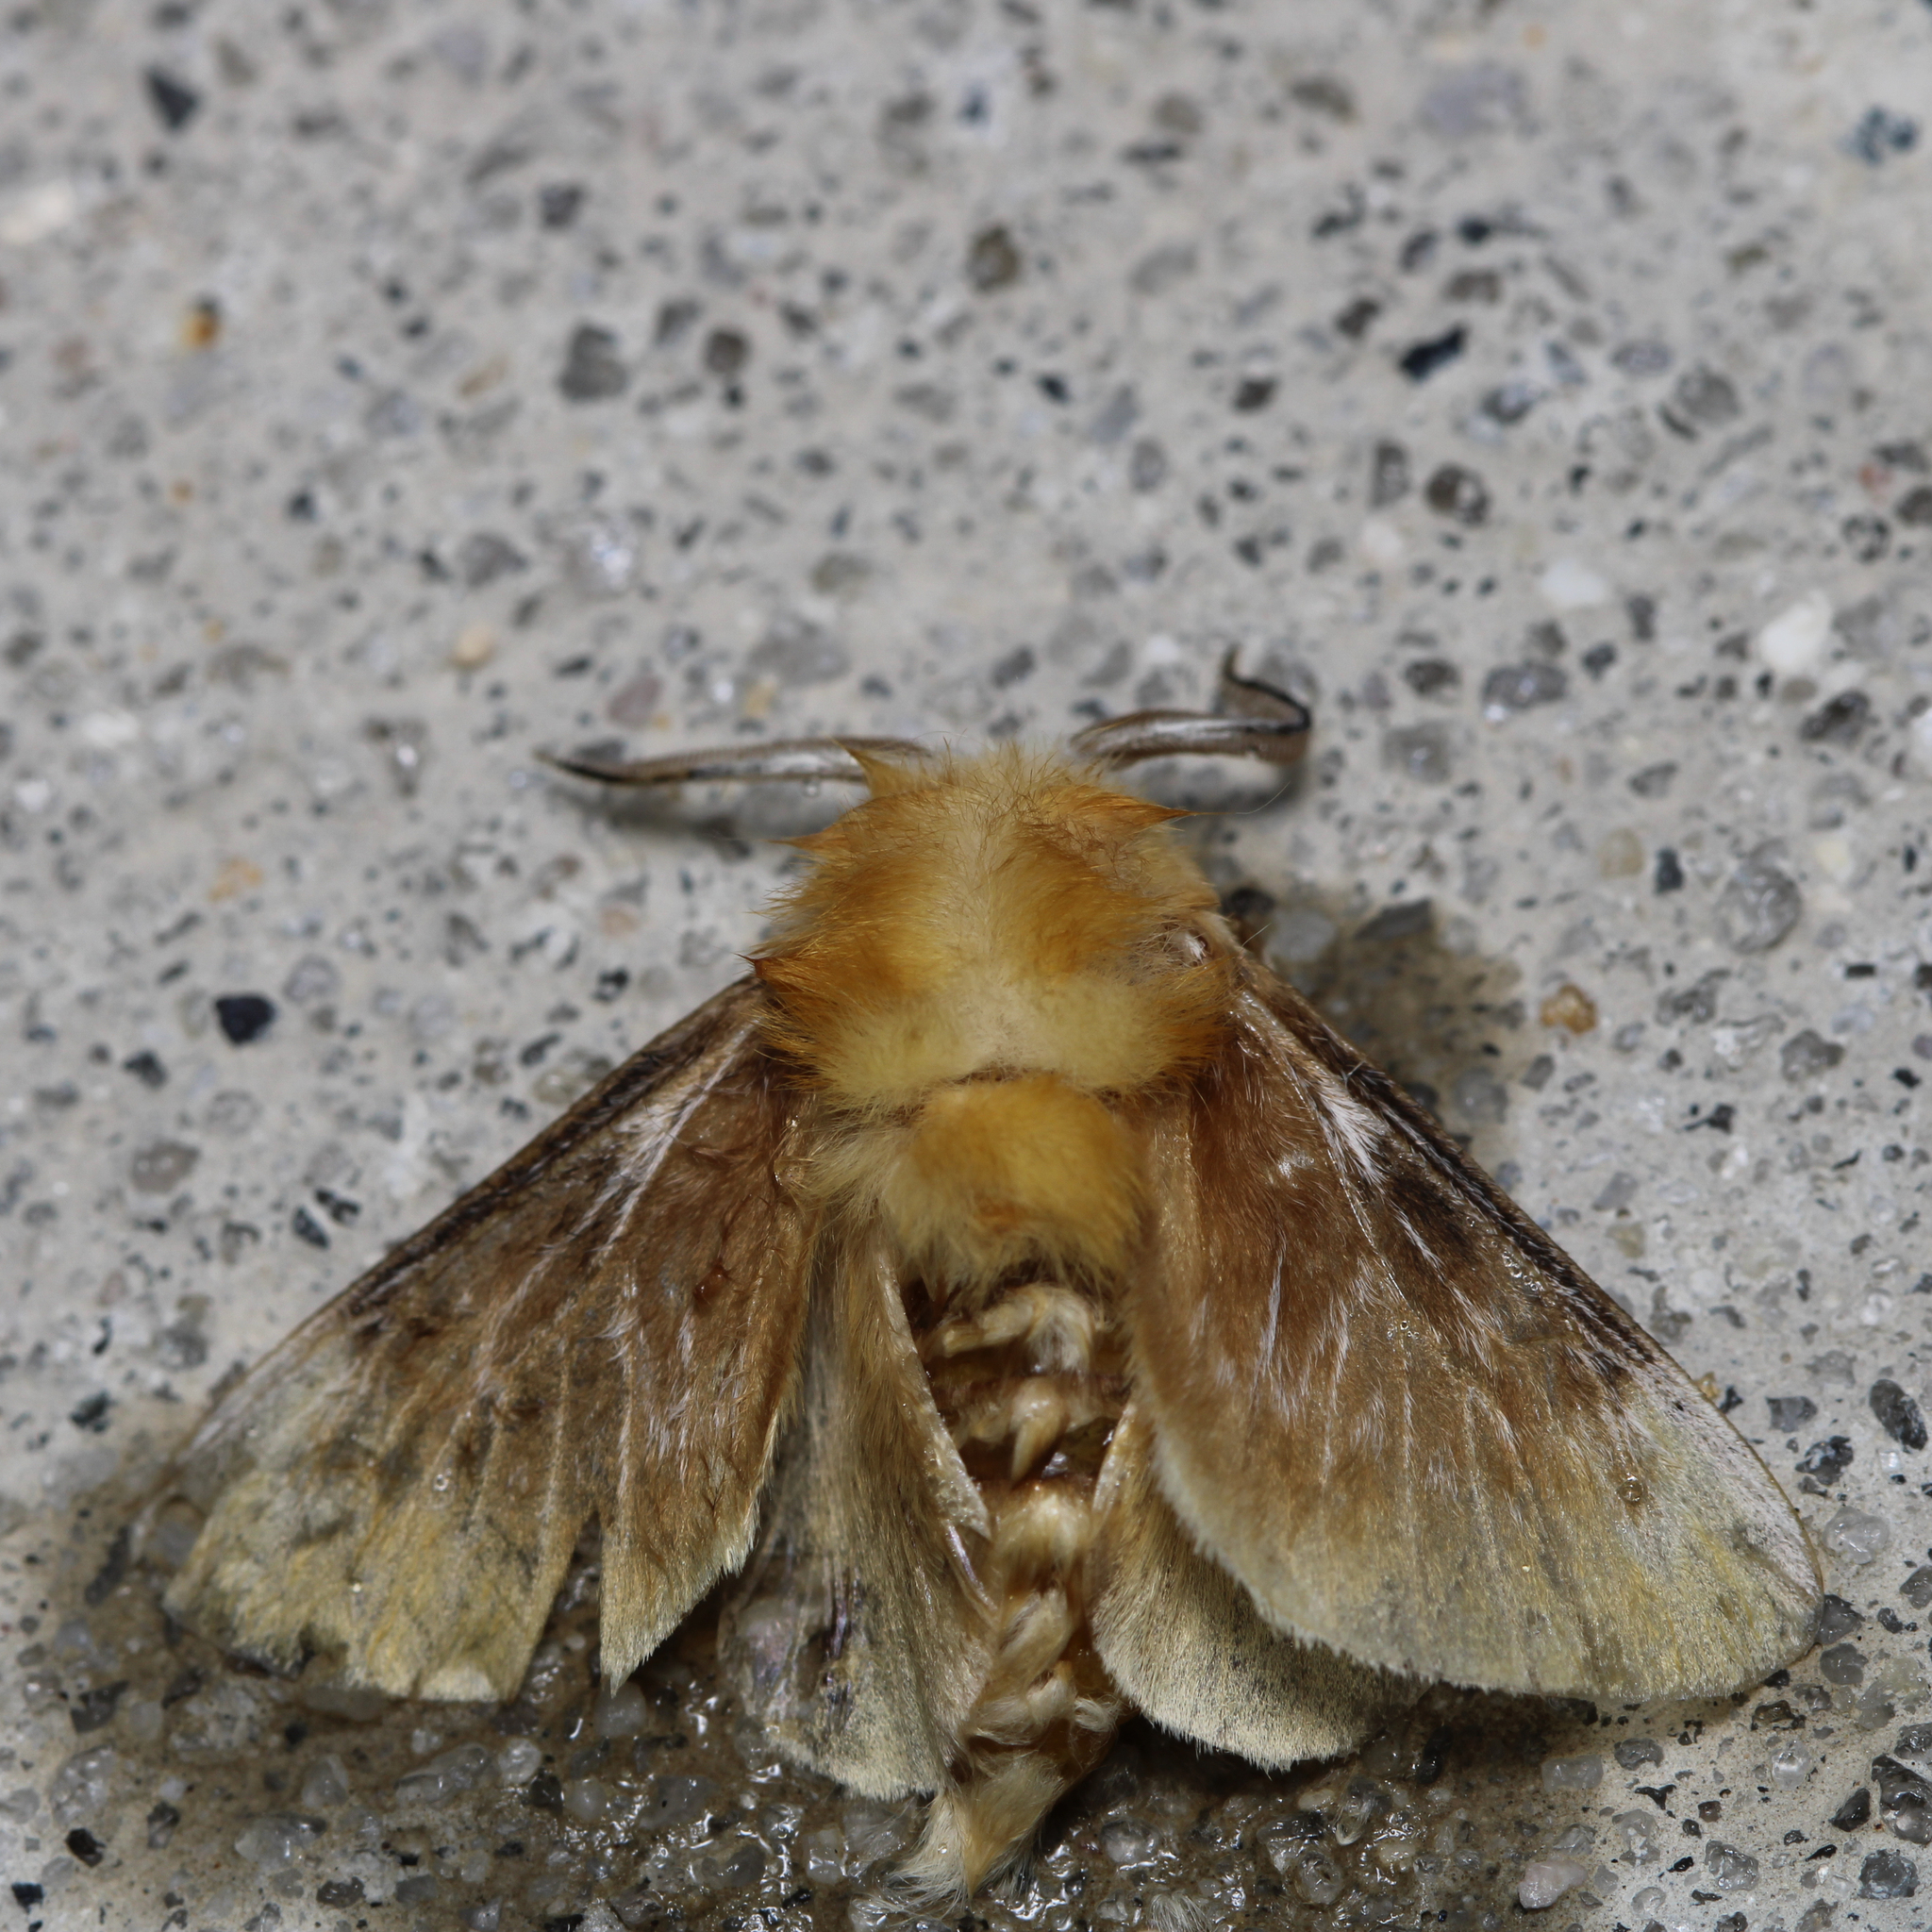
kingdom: Animalia
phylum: Arthropoda
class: Insecta
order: Lepidoptera
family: Megalopygidae
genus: Megalopyge
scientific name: Megalopyge opercularis
